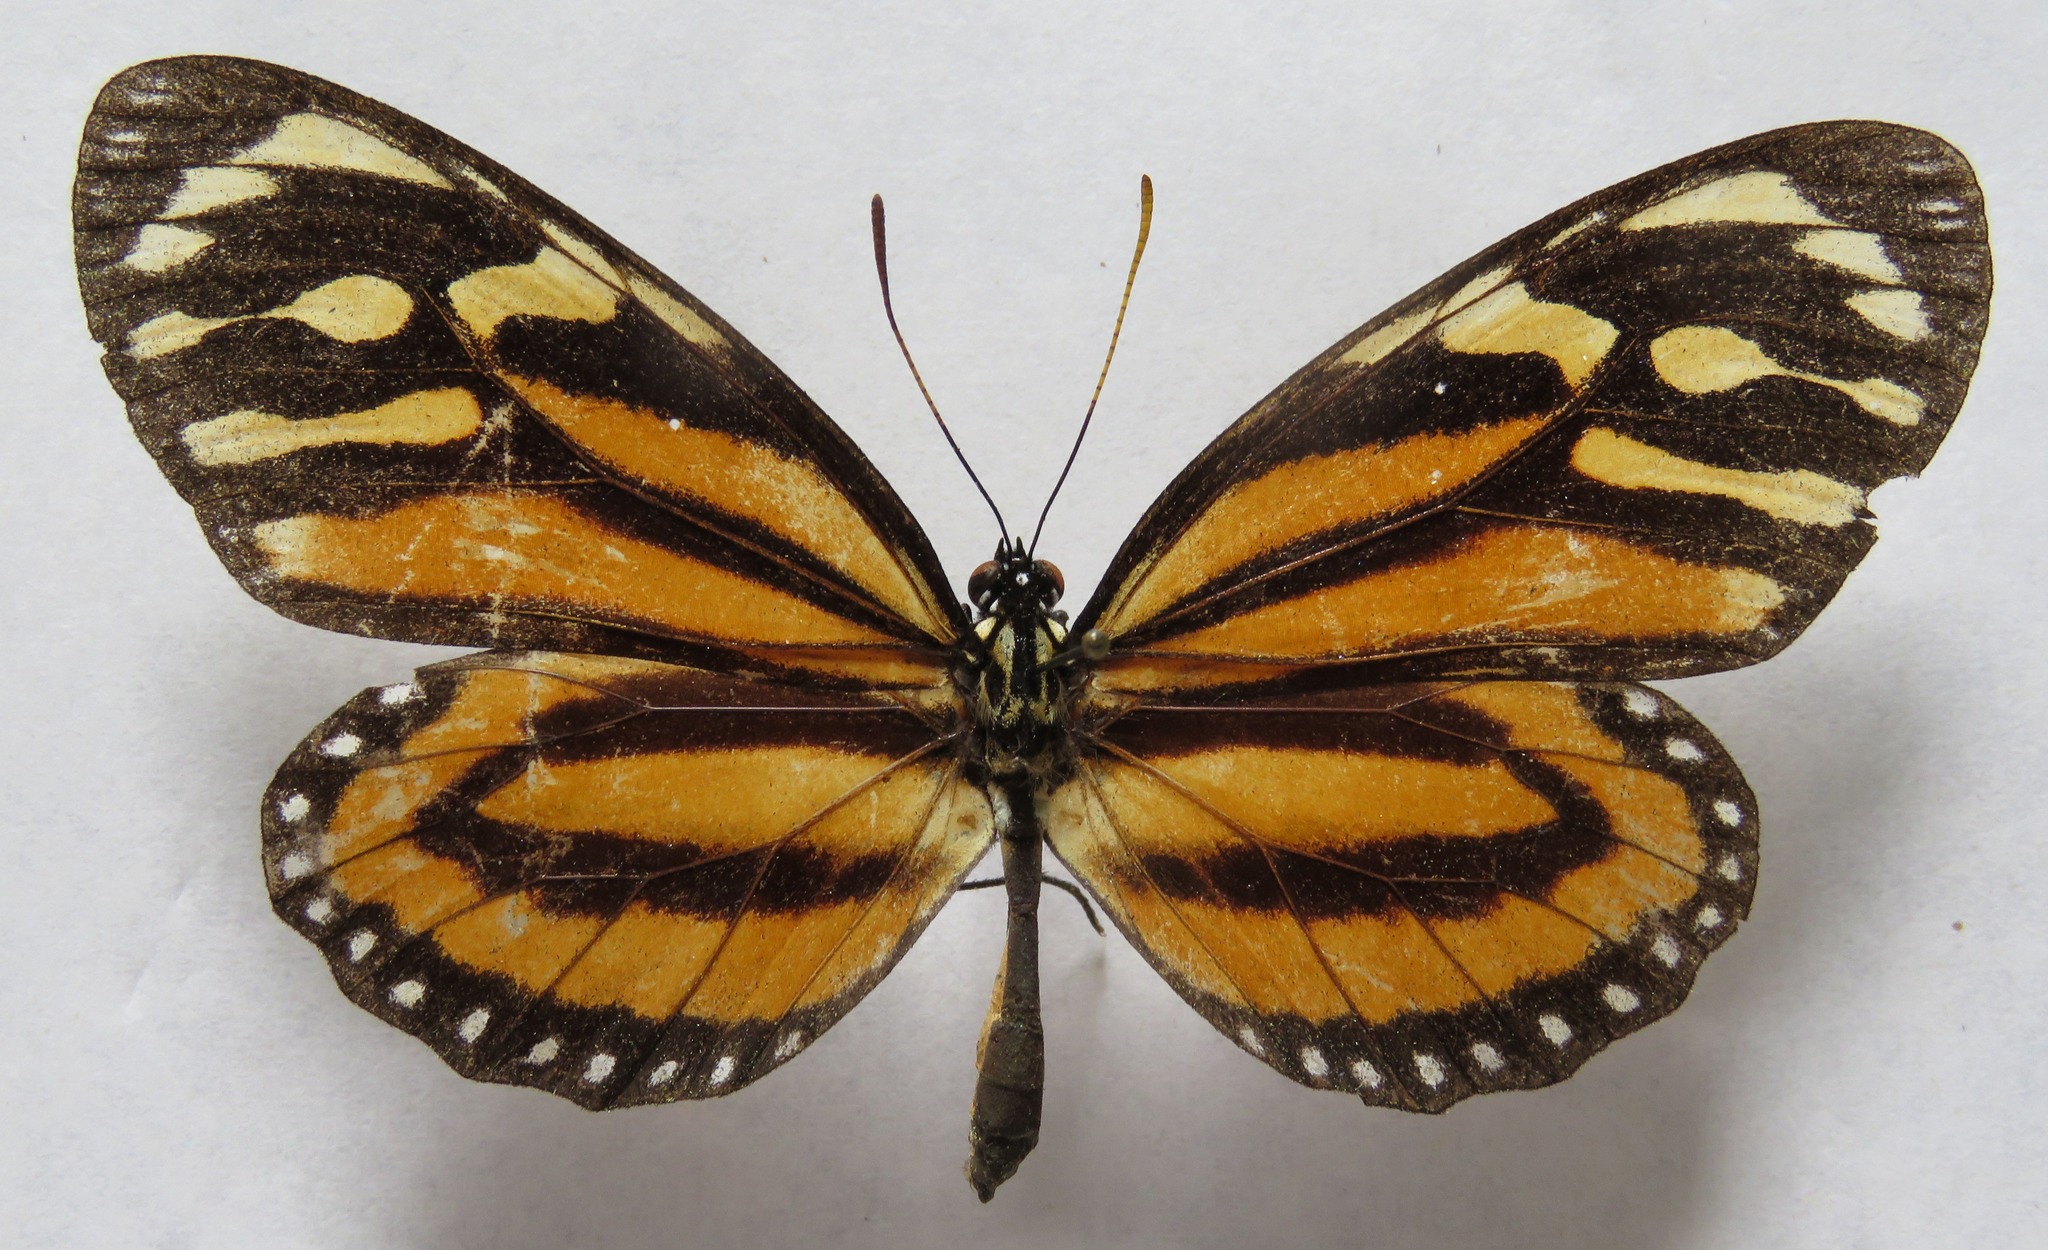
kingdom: Animalia
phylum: Arthropoda
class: Insecta
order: Lepidoptera
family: Nymphalidae
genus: Lycorea
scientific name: Lycorea cleobaea
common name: Tiger mimic-queen
